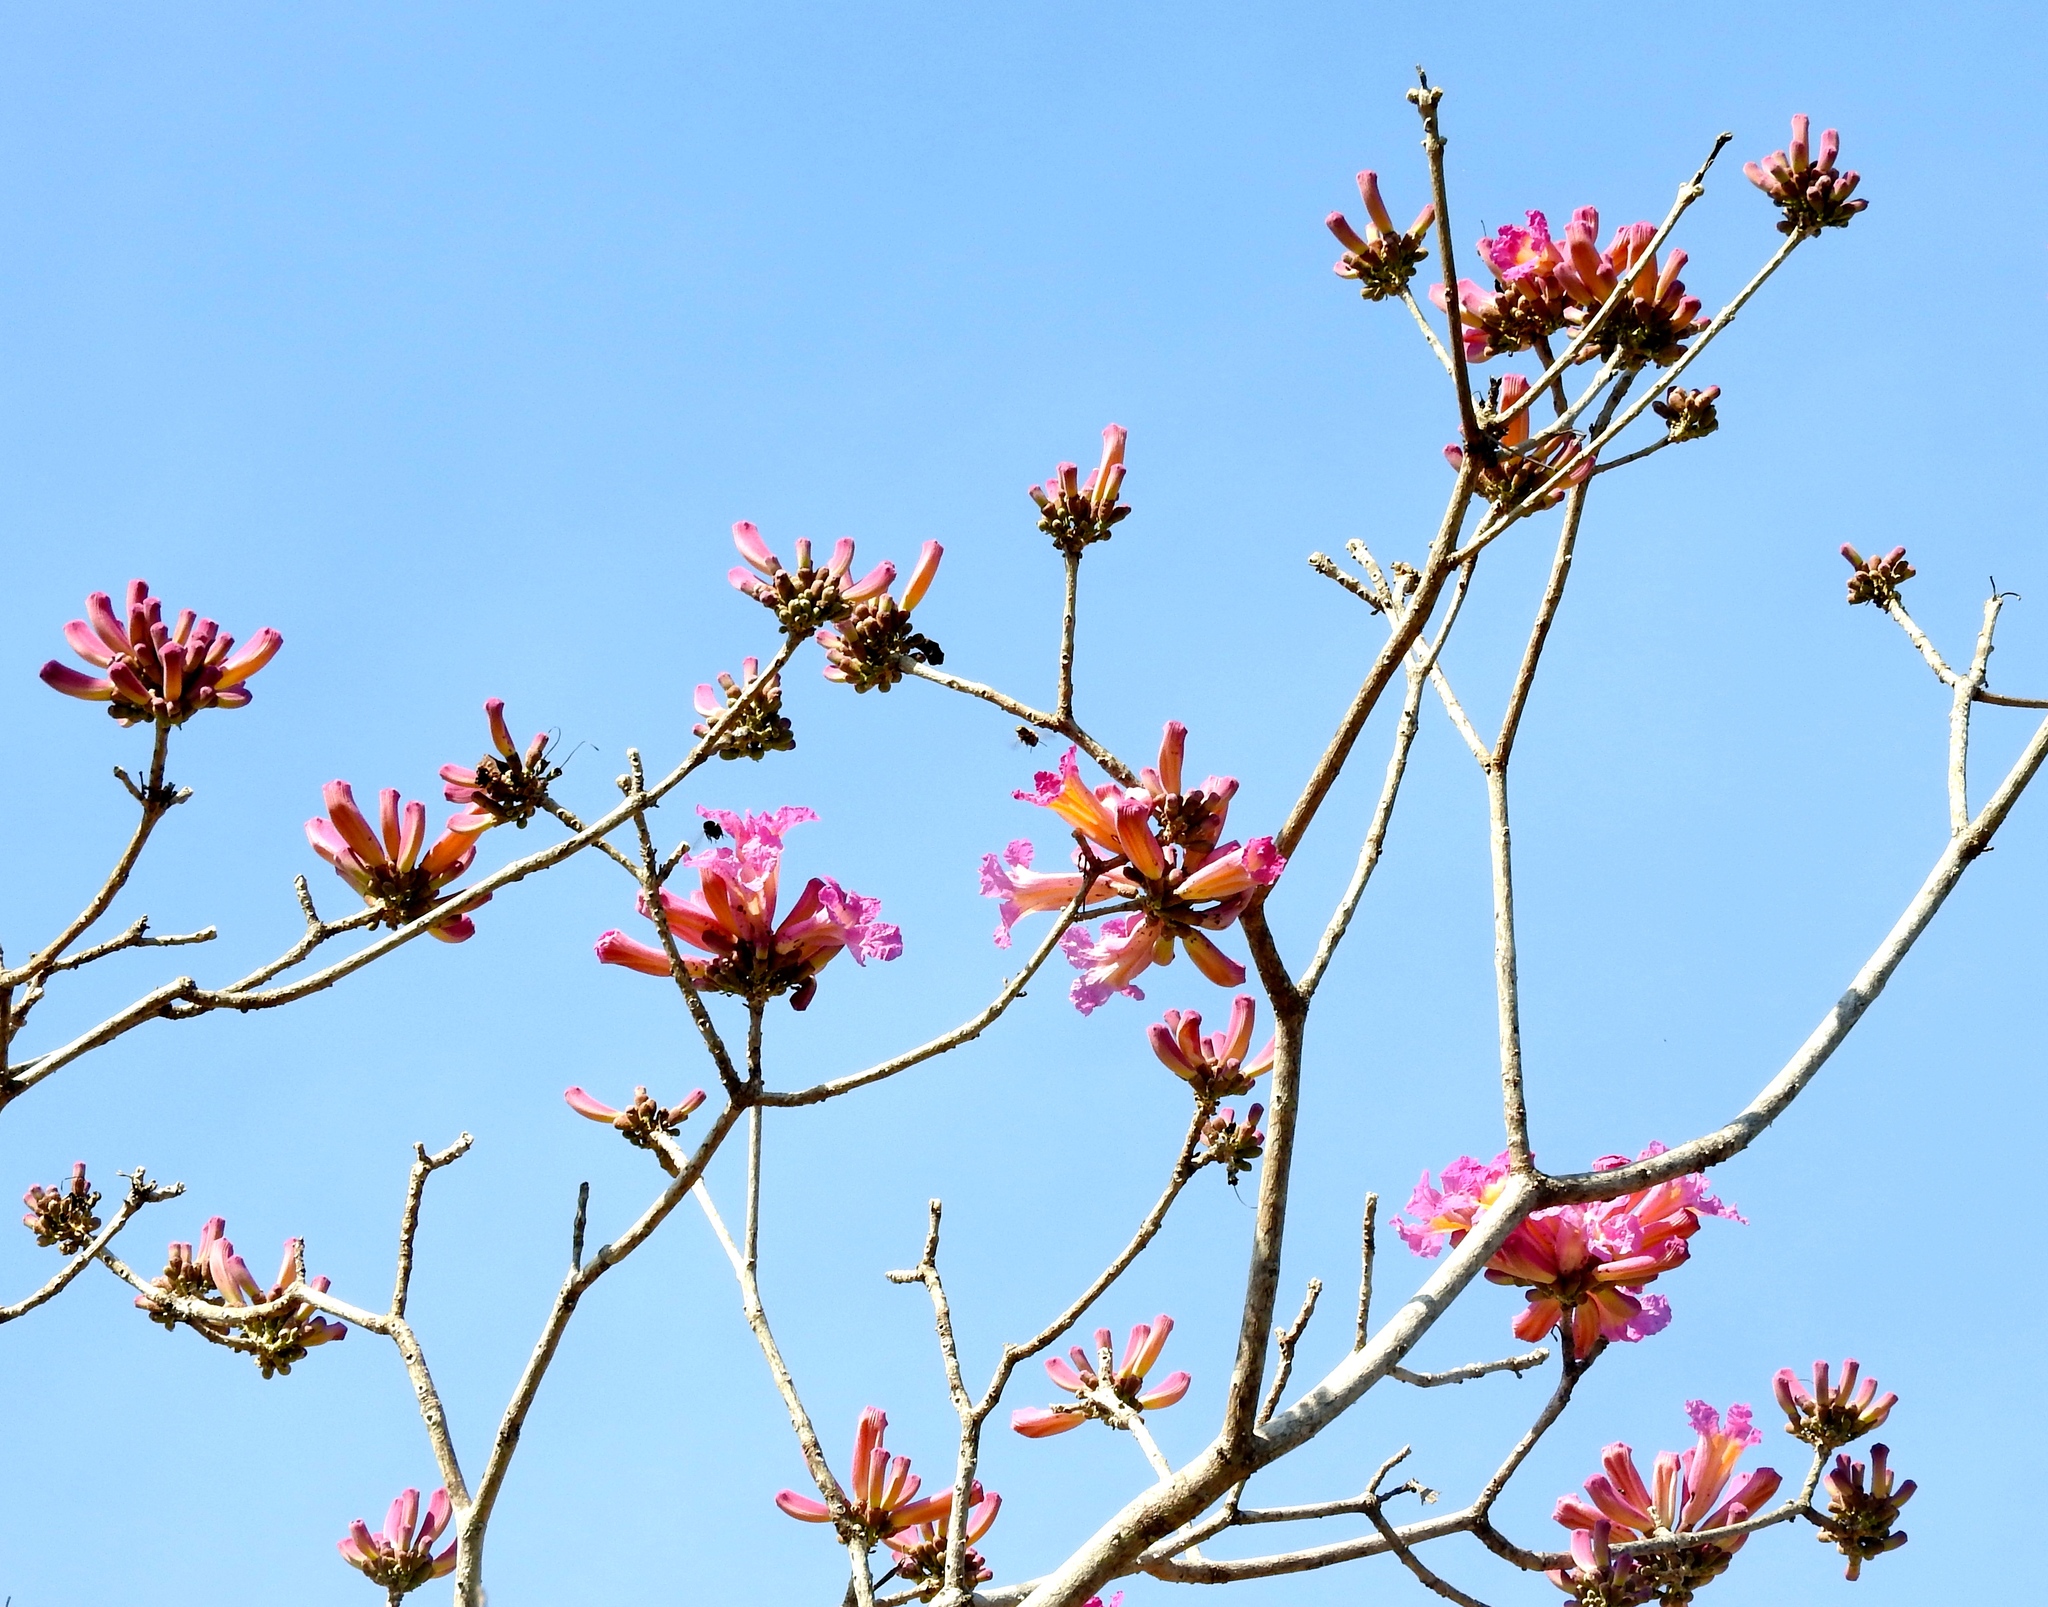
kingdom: Plantae
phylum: Tracheophyta
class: Magnoliopsida
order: Lamiales
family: Bignoniaceae
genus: Handroanthus
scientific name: Handroanthus impetiginosum
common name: Pink trumpet tree
